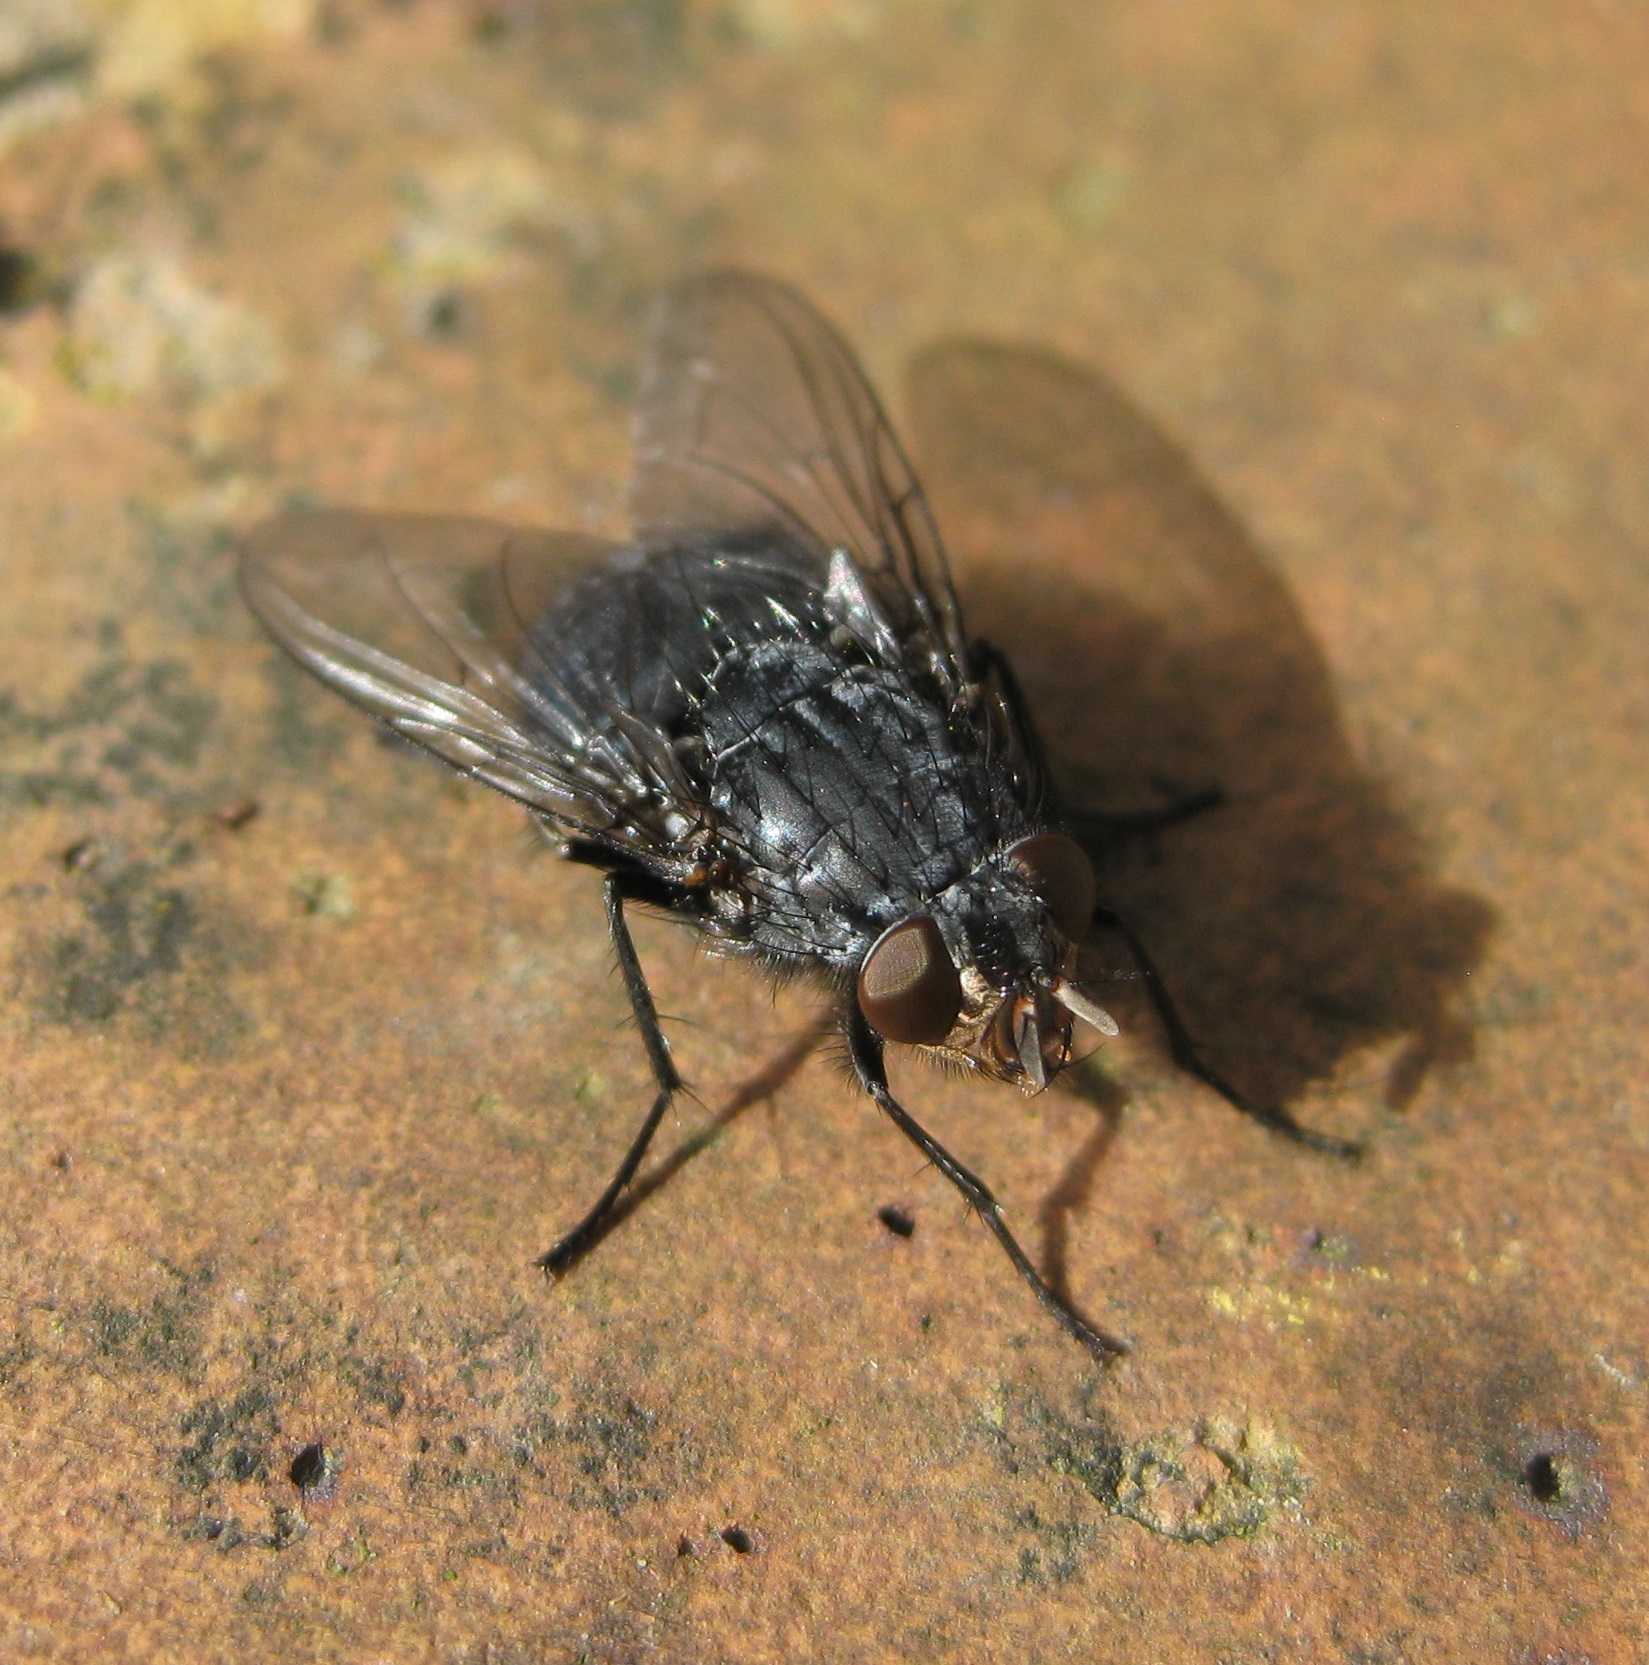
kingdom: Animalia
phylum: Arthropoda
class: Insecta
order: Diptera
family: Calliphoridae
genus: Calliphora
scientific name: Calliphora vicina
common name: Common blow flie
